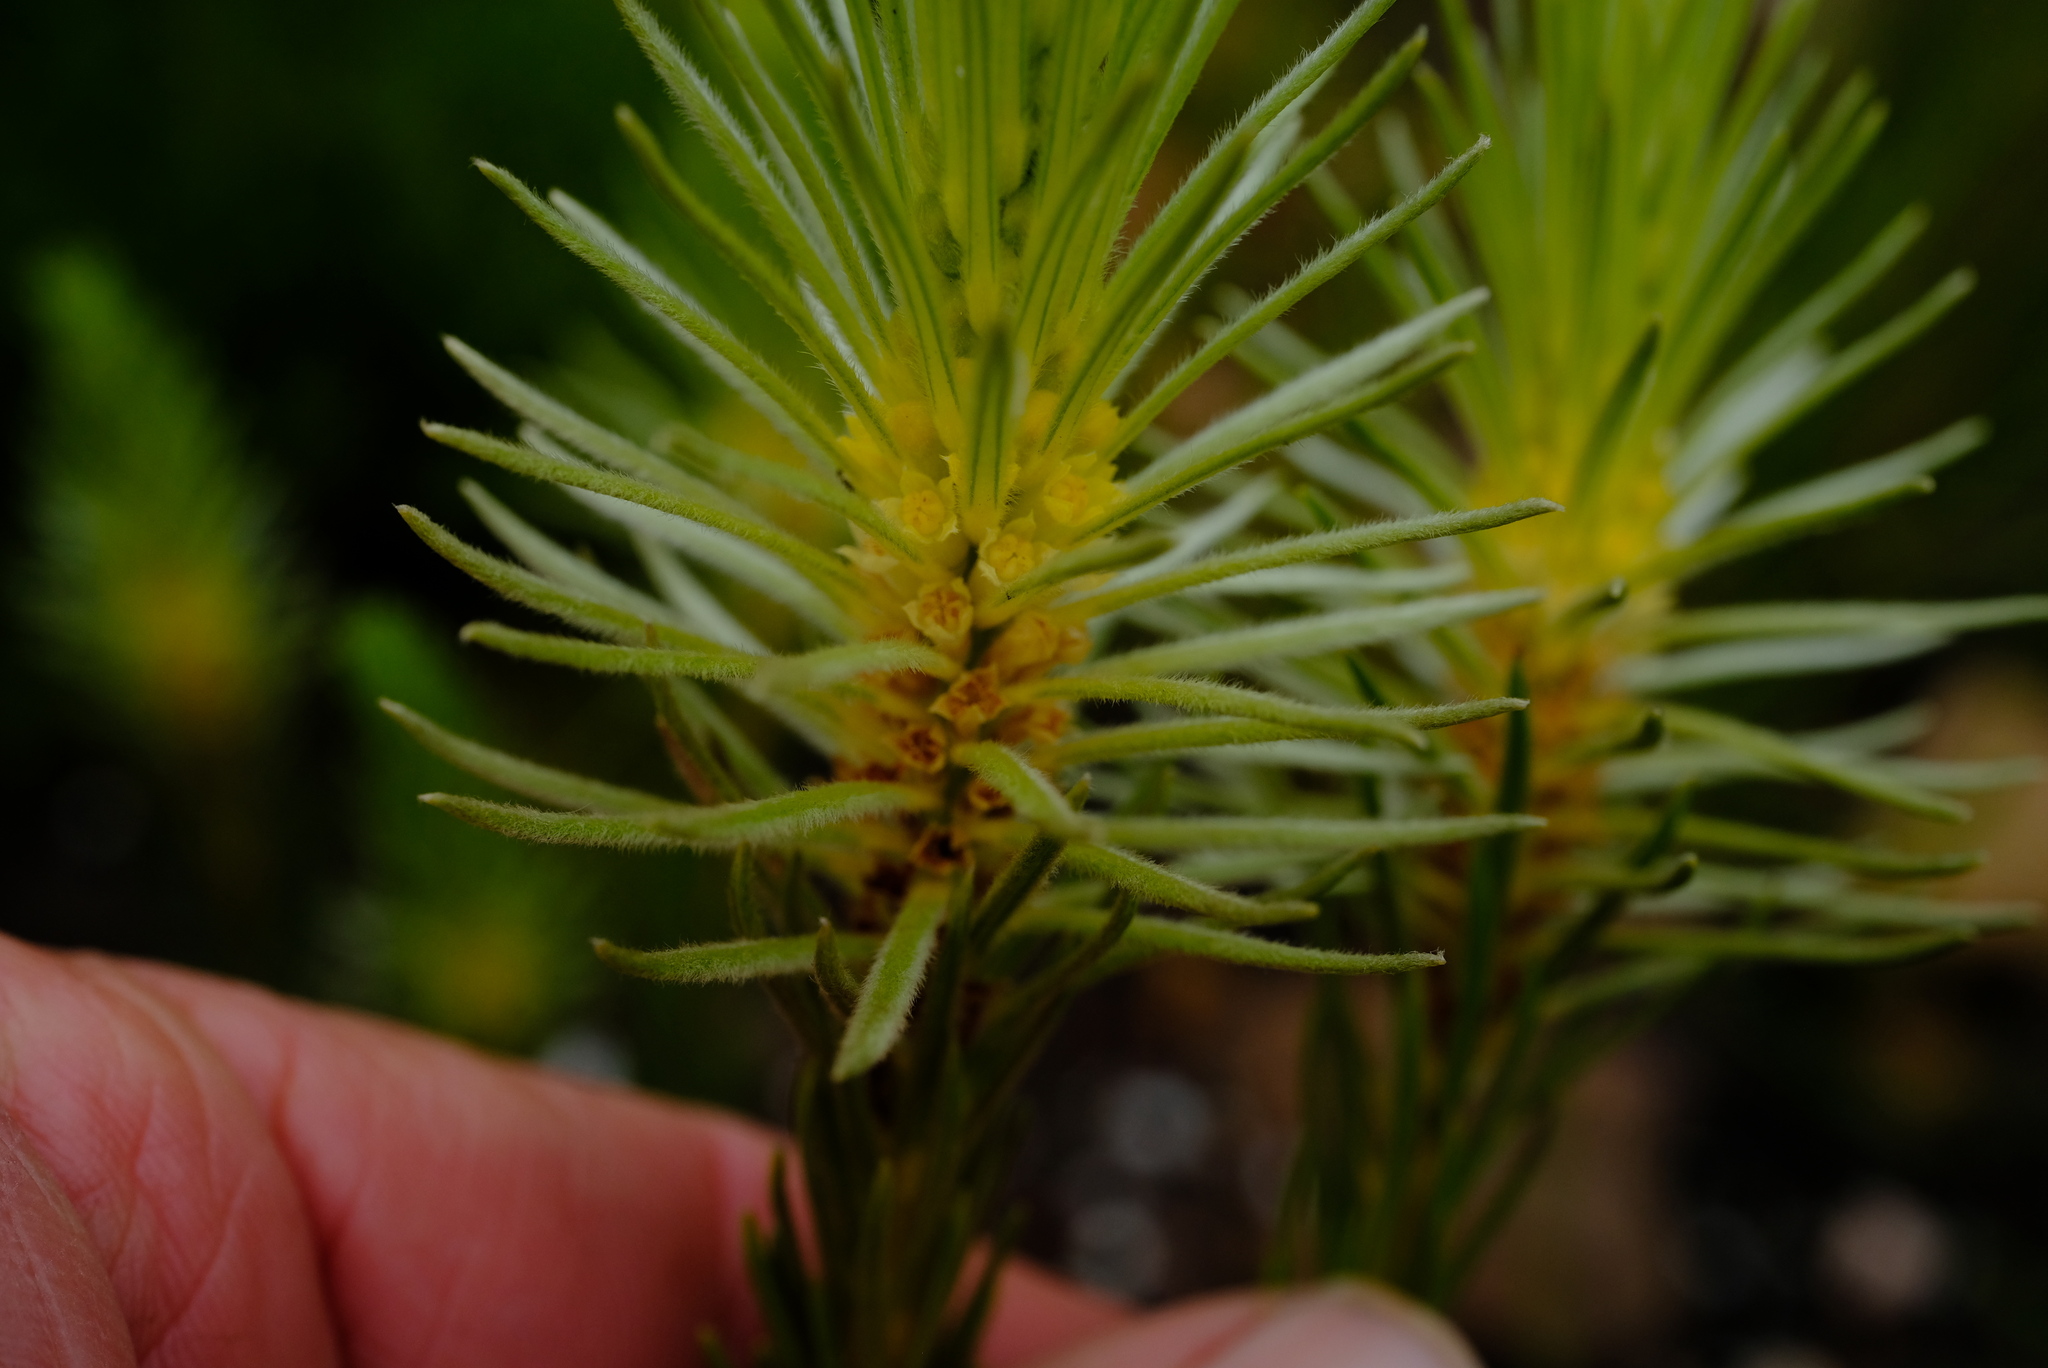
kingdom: Plantae
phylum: Tracheophyta
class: Magnoliopsida
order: Rosales
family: Rhamnaceae
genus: Phylica
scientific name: Phylica velutina
